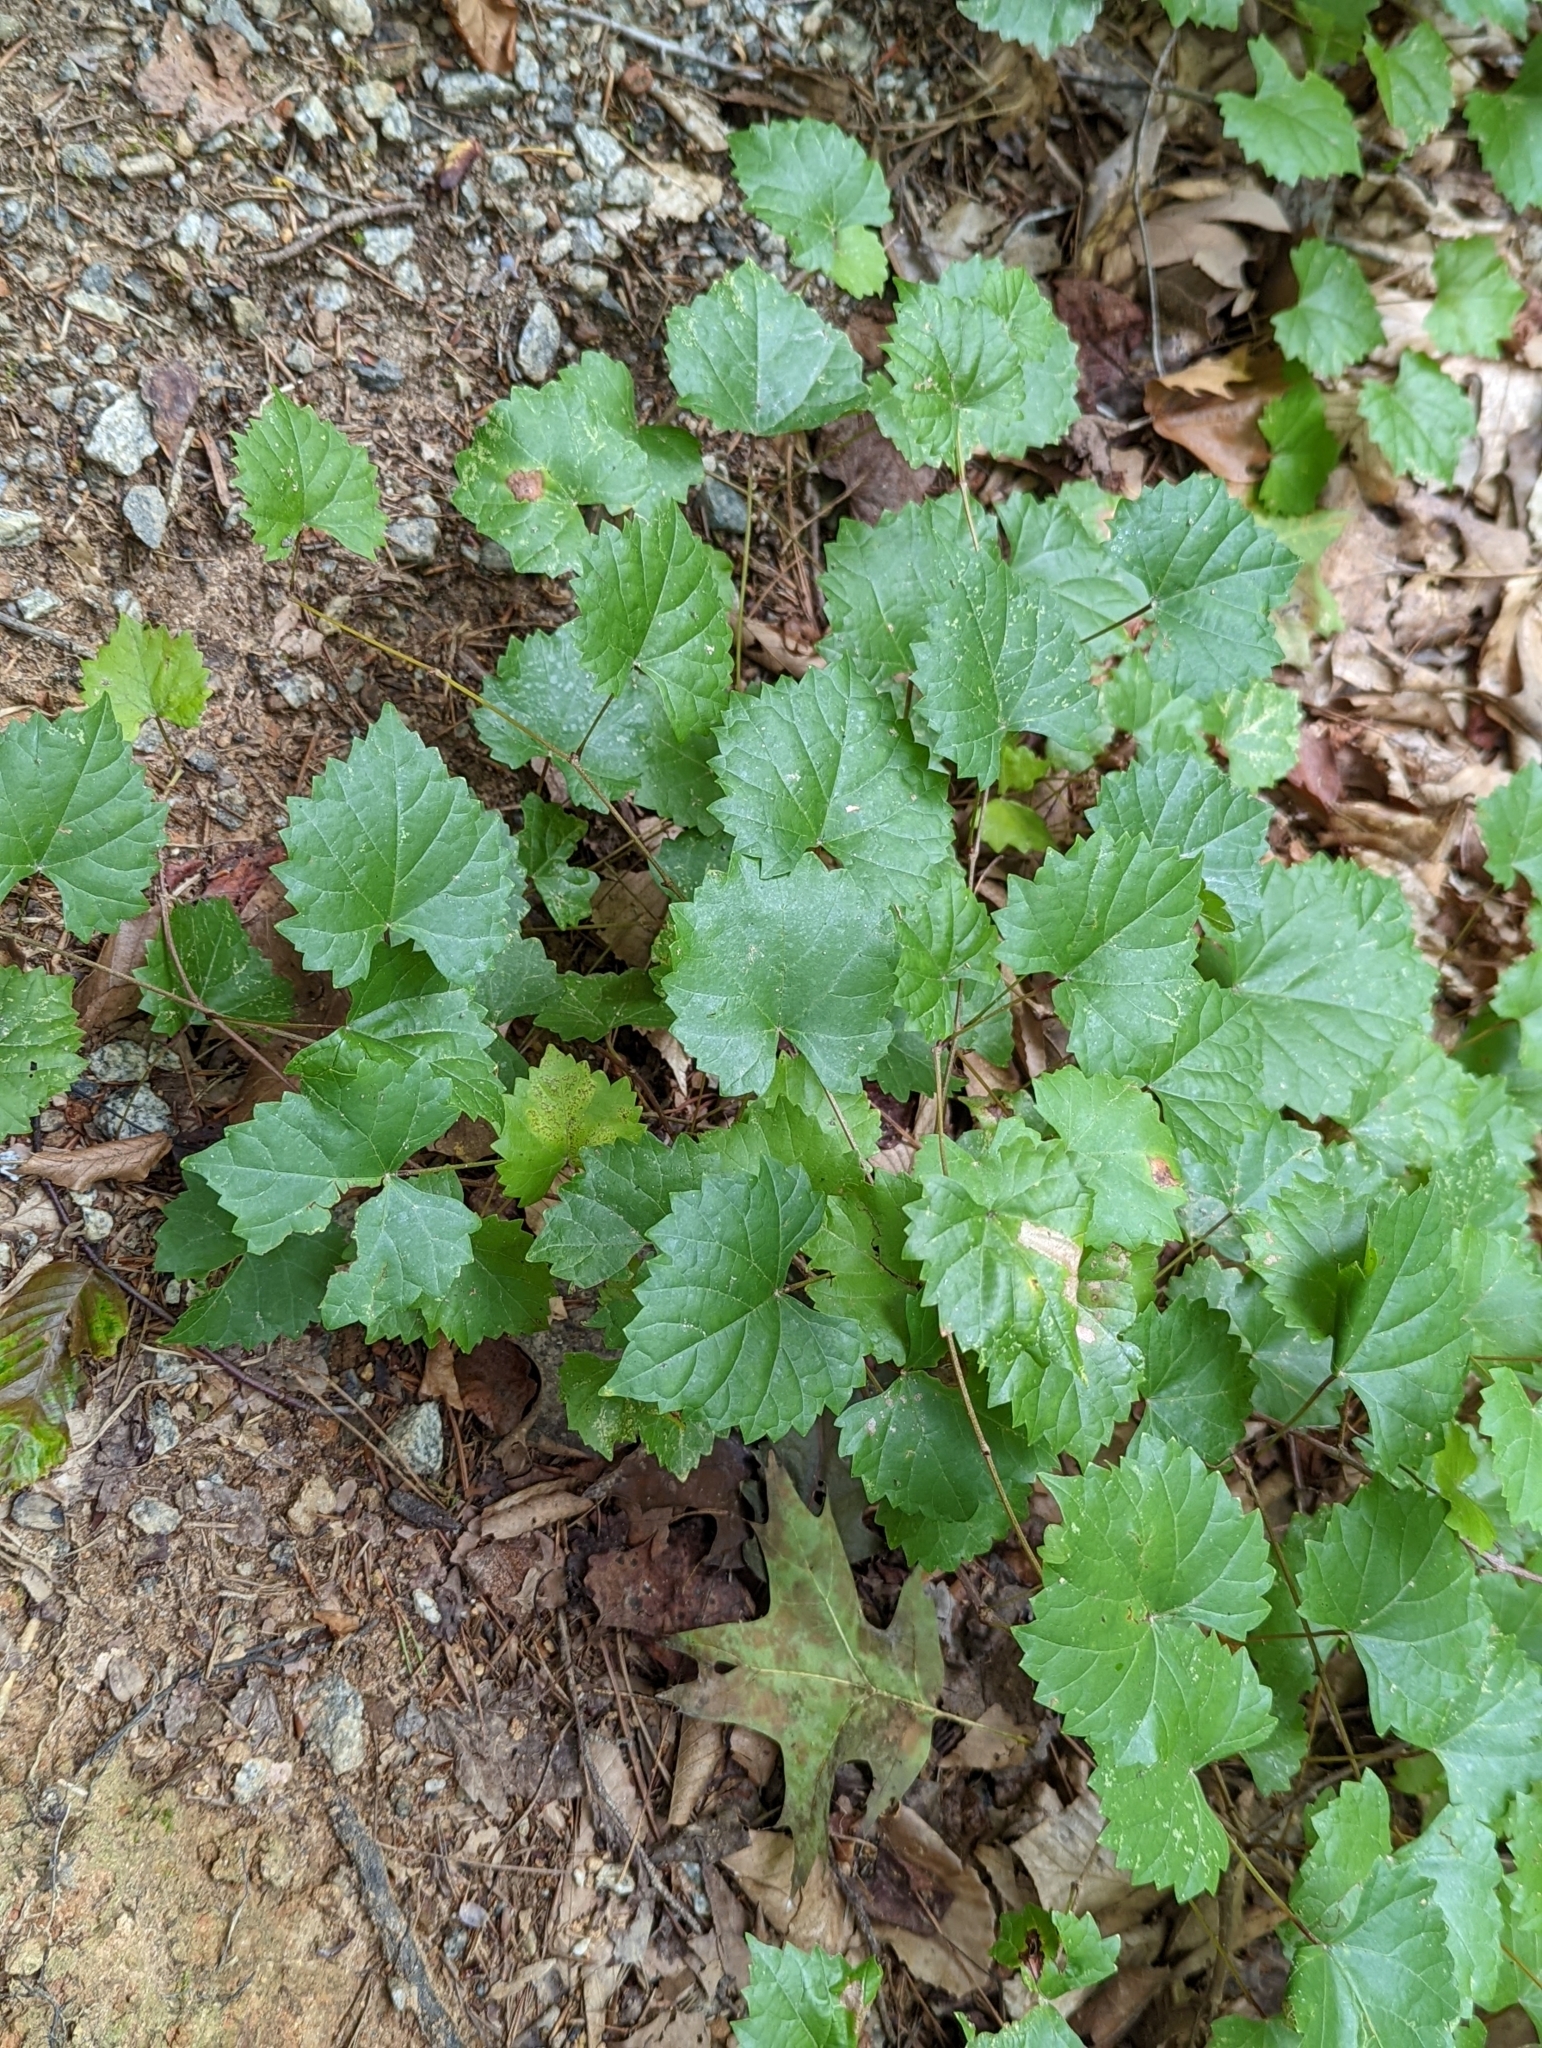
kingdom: Plantae
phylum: Tracheophyta
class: Magnoliopsida
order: Vitales
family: Vitaceae
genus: Vitis
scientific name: Vitis rotundifolia
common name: Muscadine grape
